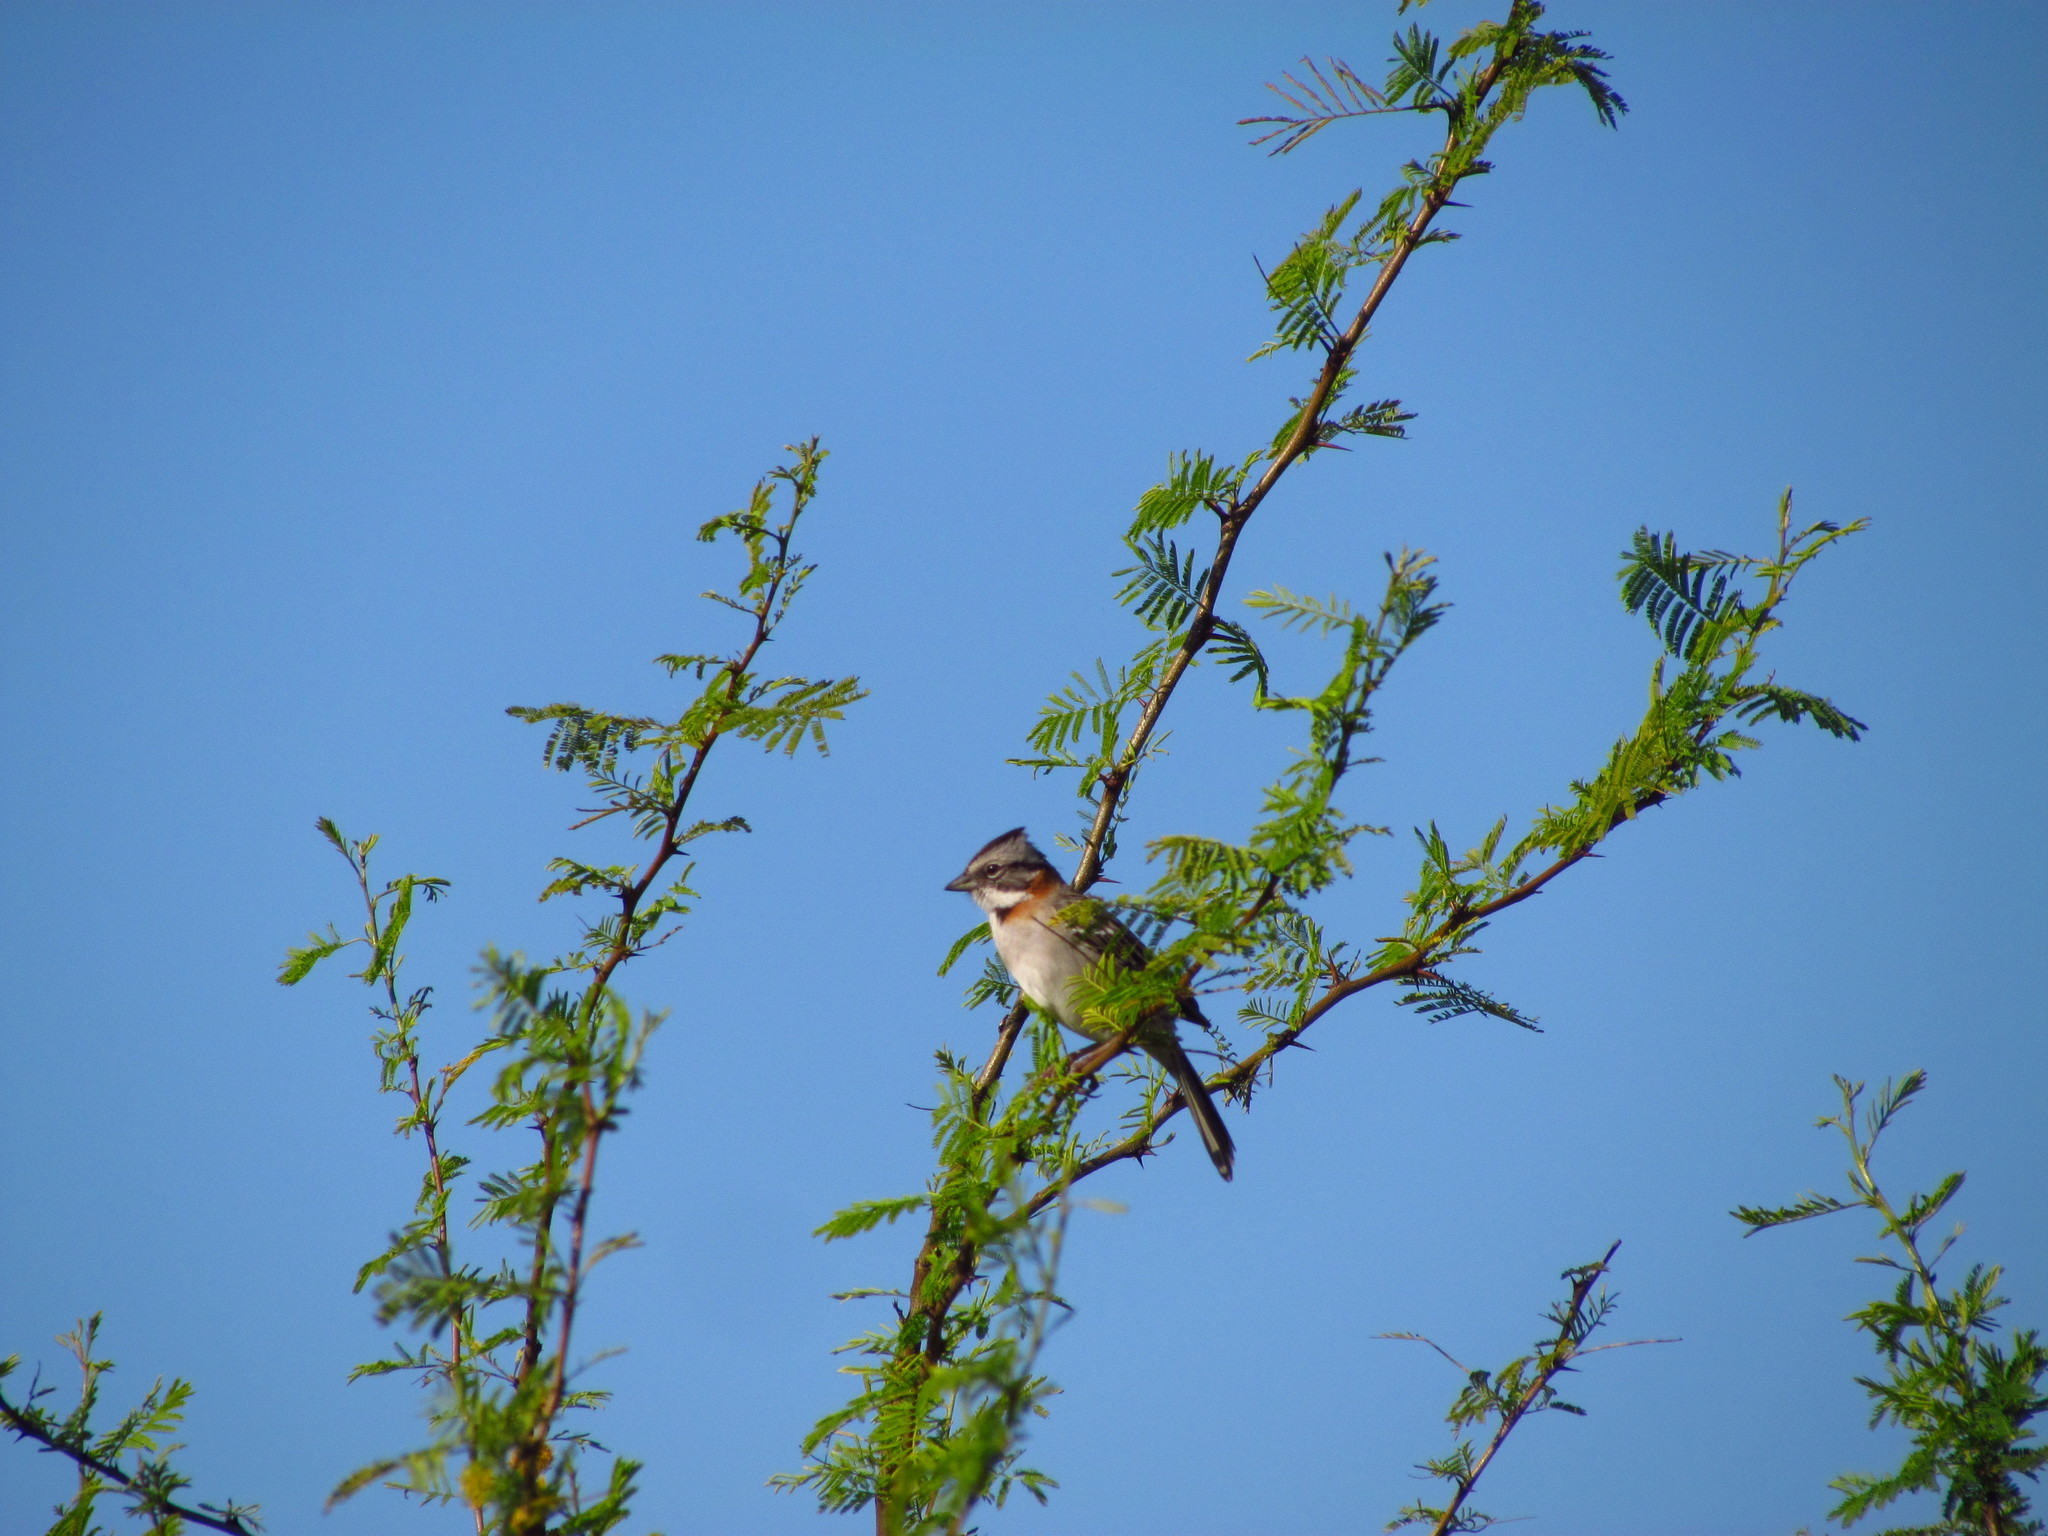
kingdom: Animalia
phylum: Chordata
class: Aves
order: Passeriformes
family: Passerellidae
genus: Zonotrichia
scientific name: Zonotrichia capensis
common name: Rufous-collared sparrow
